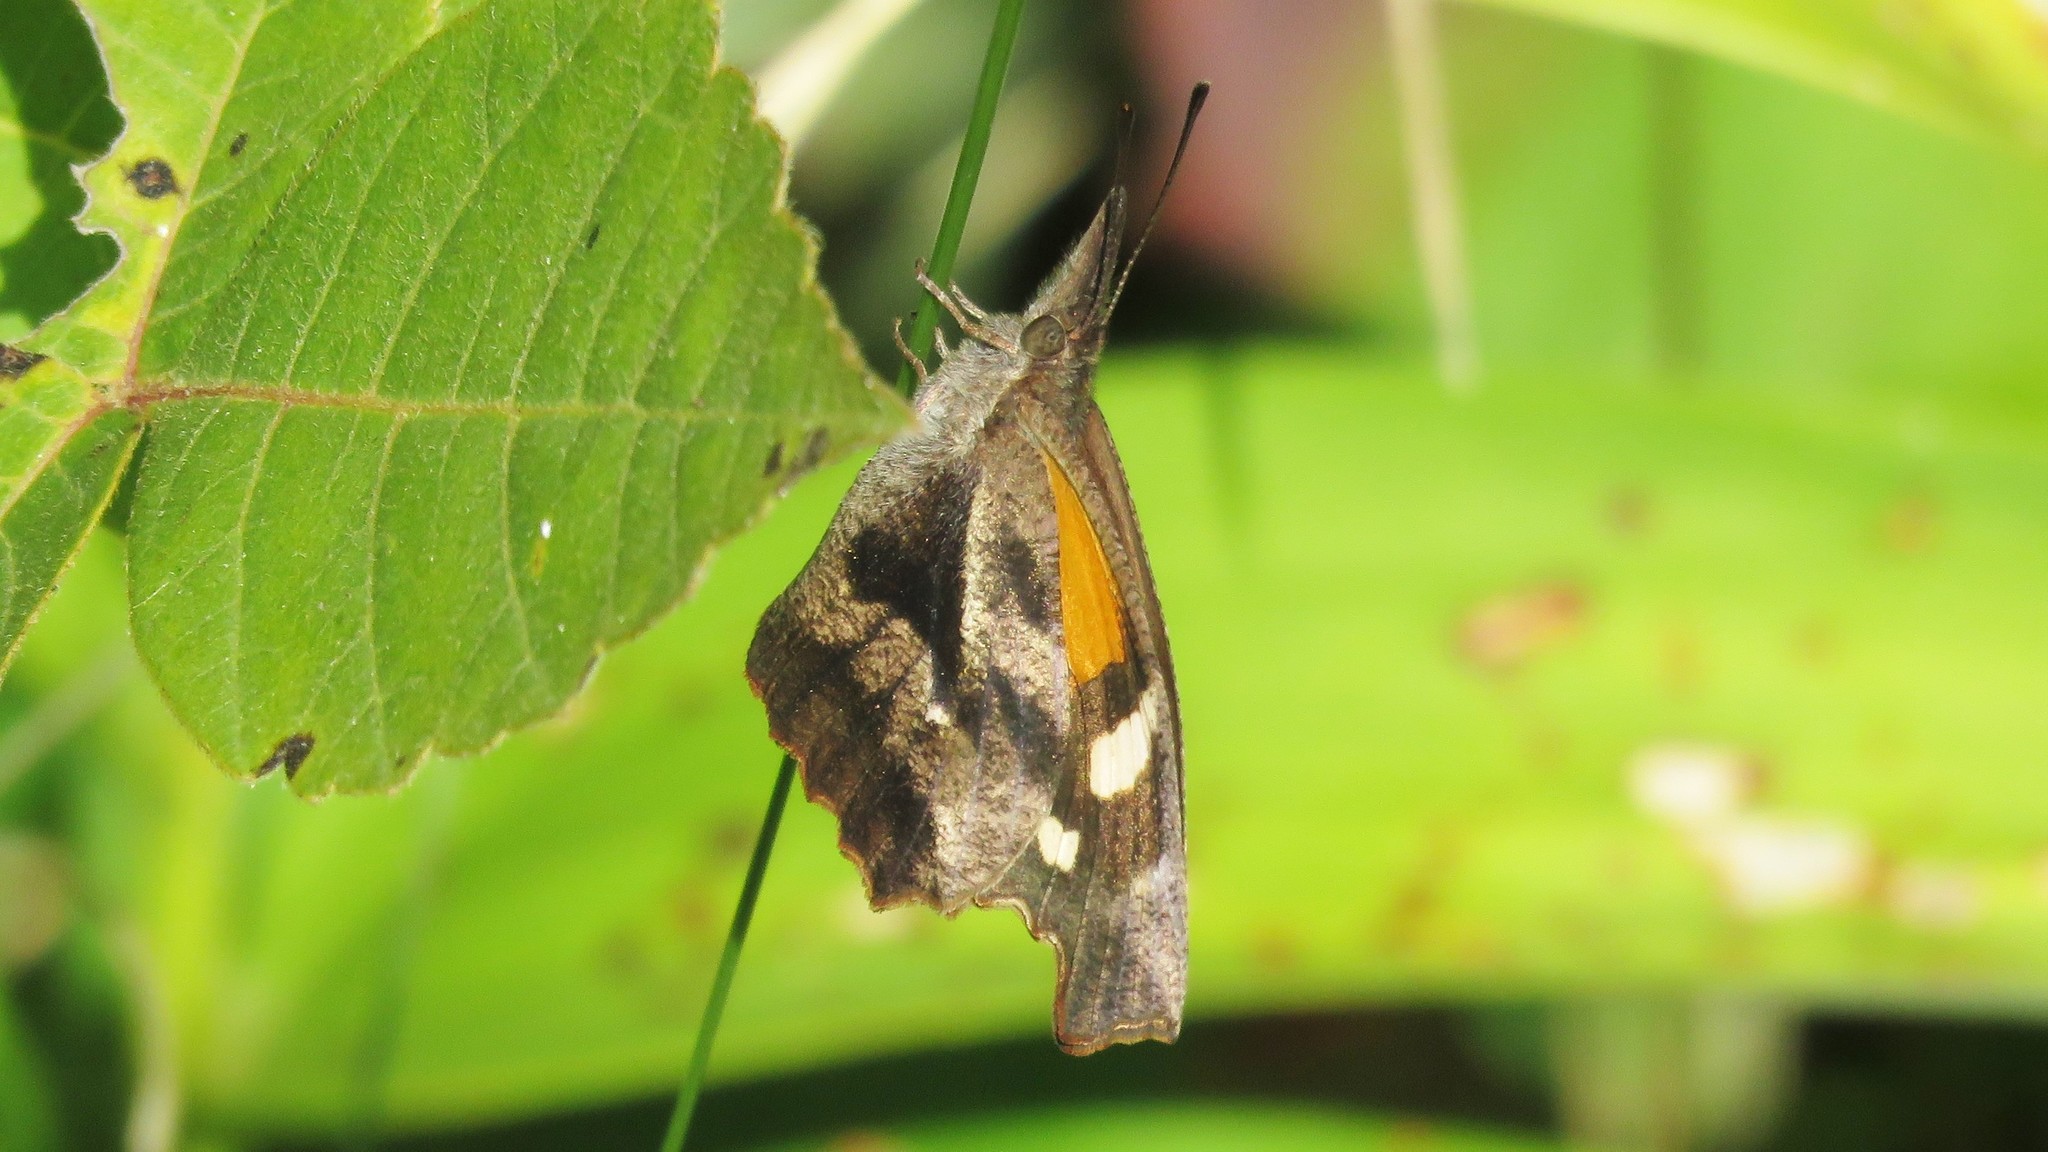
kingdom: Animalia
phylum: Arthropoda
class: Insecta
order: Lepidoptera
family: Nymphalidae
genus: Libytheana
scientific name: Libytheana carinenta
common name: American snout
